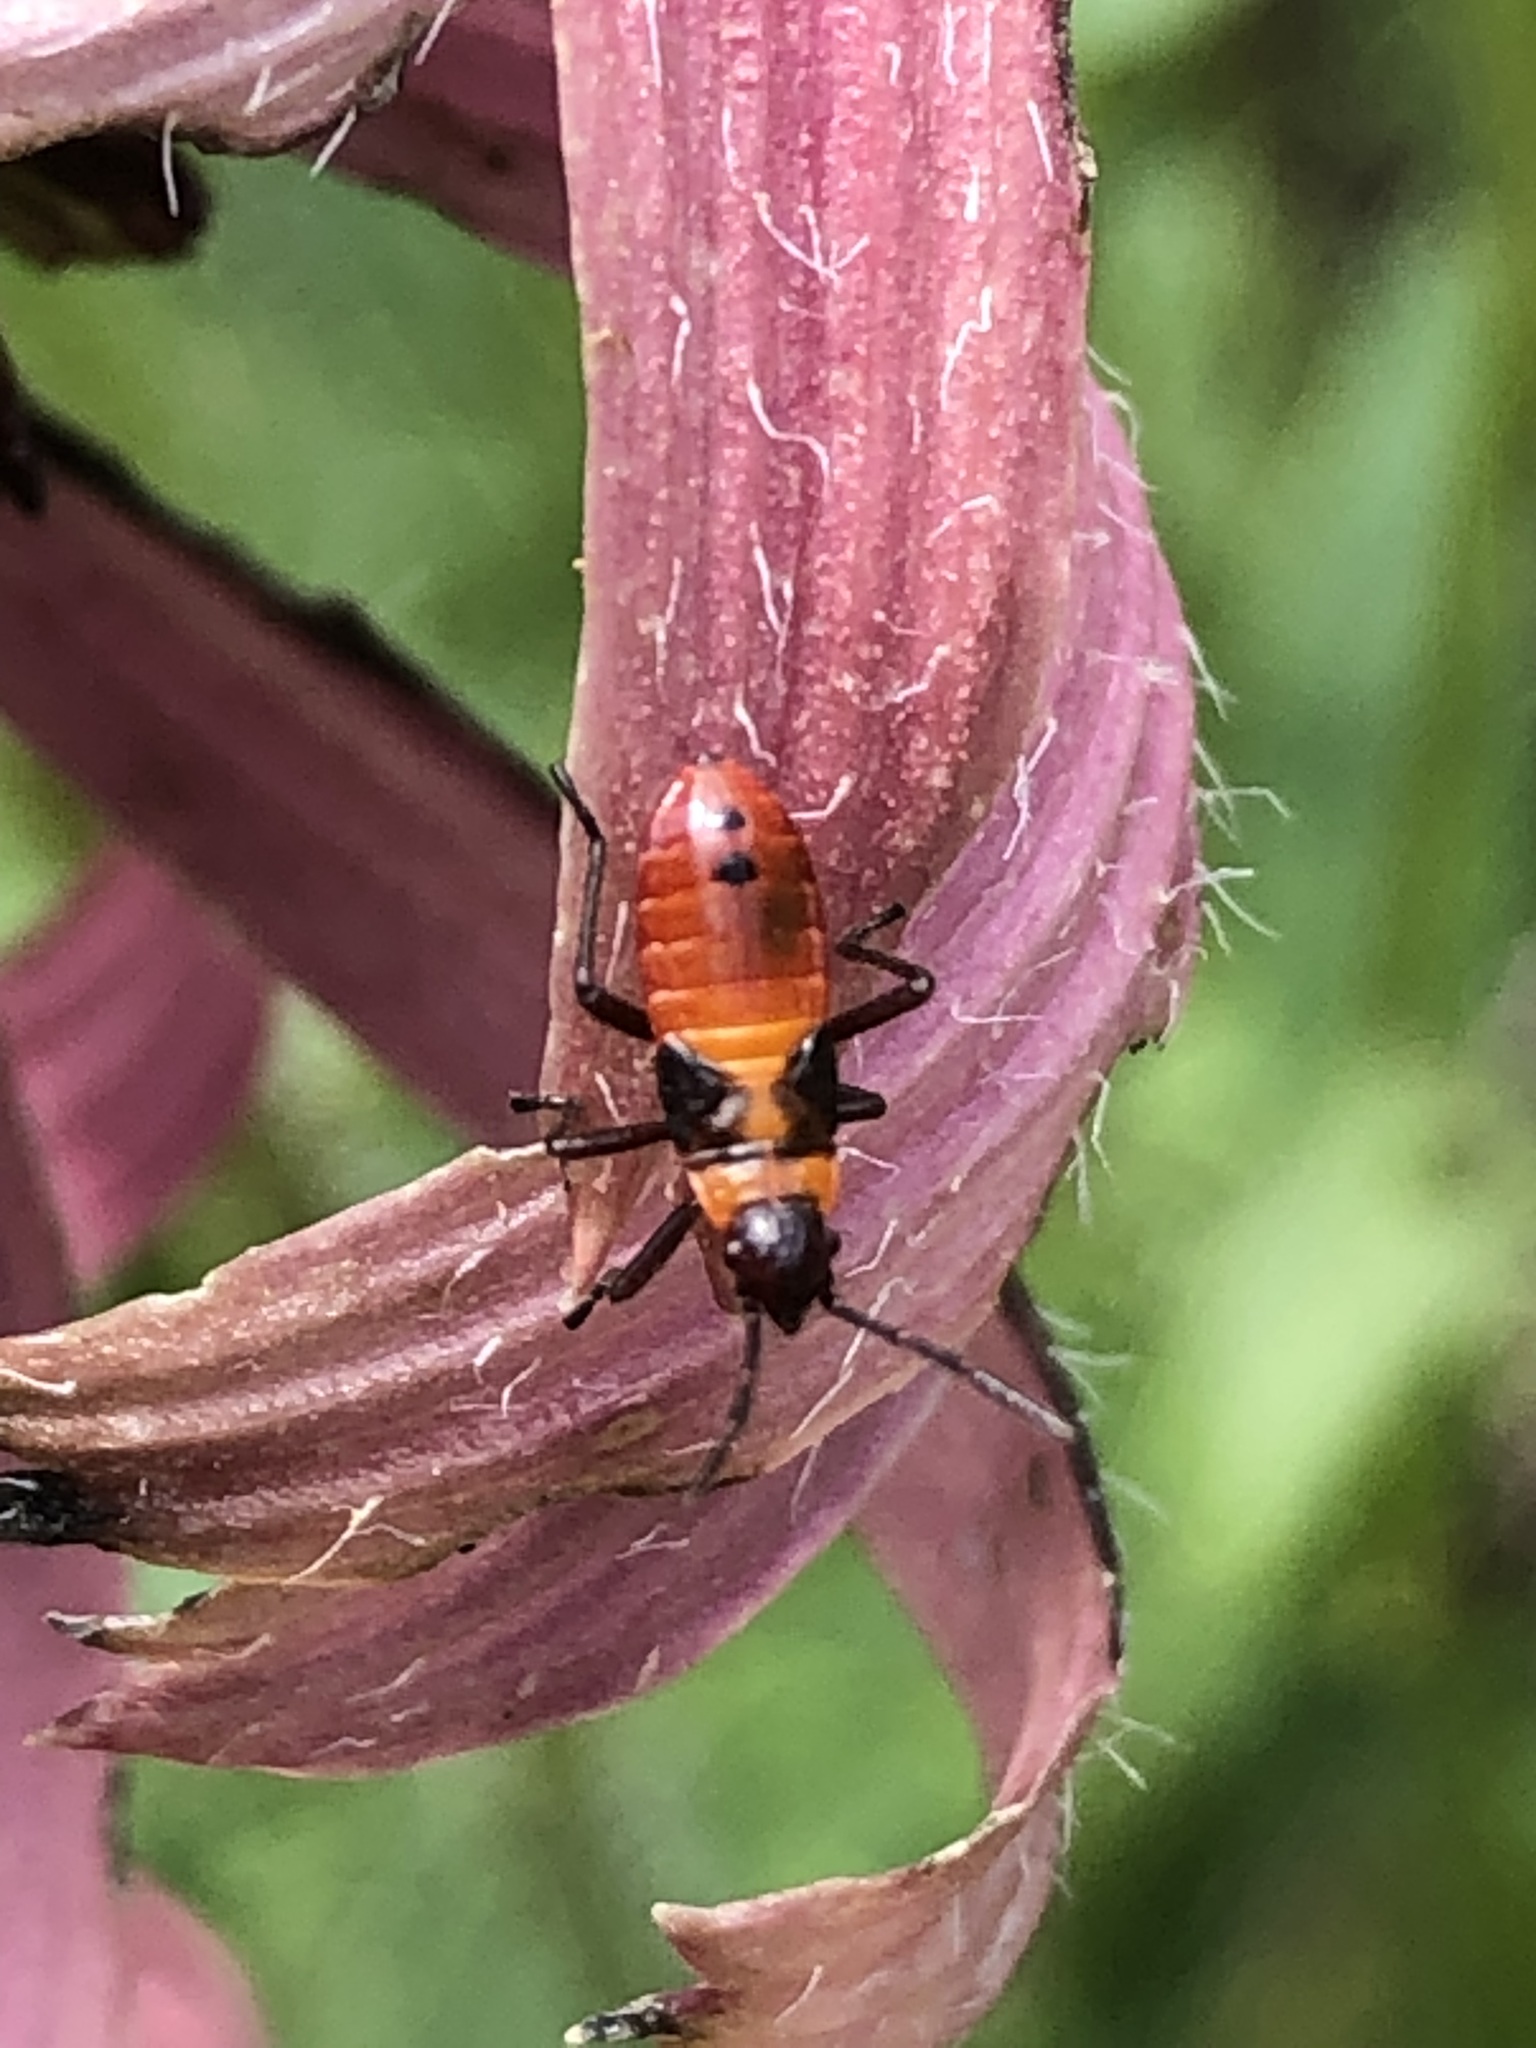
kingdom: Animalia
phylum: Arthropoda
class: Insecta
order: Hemiptera
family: Lygaeidae
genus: Oncopeltus
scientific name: Oncopeltus fasciatus
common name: Large milkweed bug
